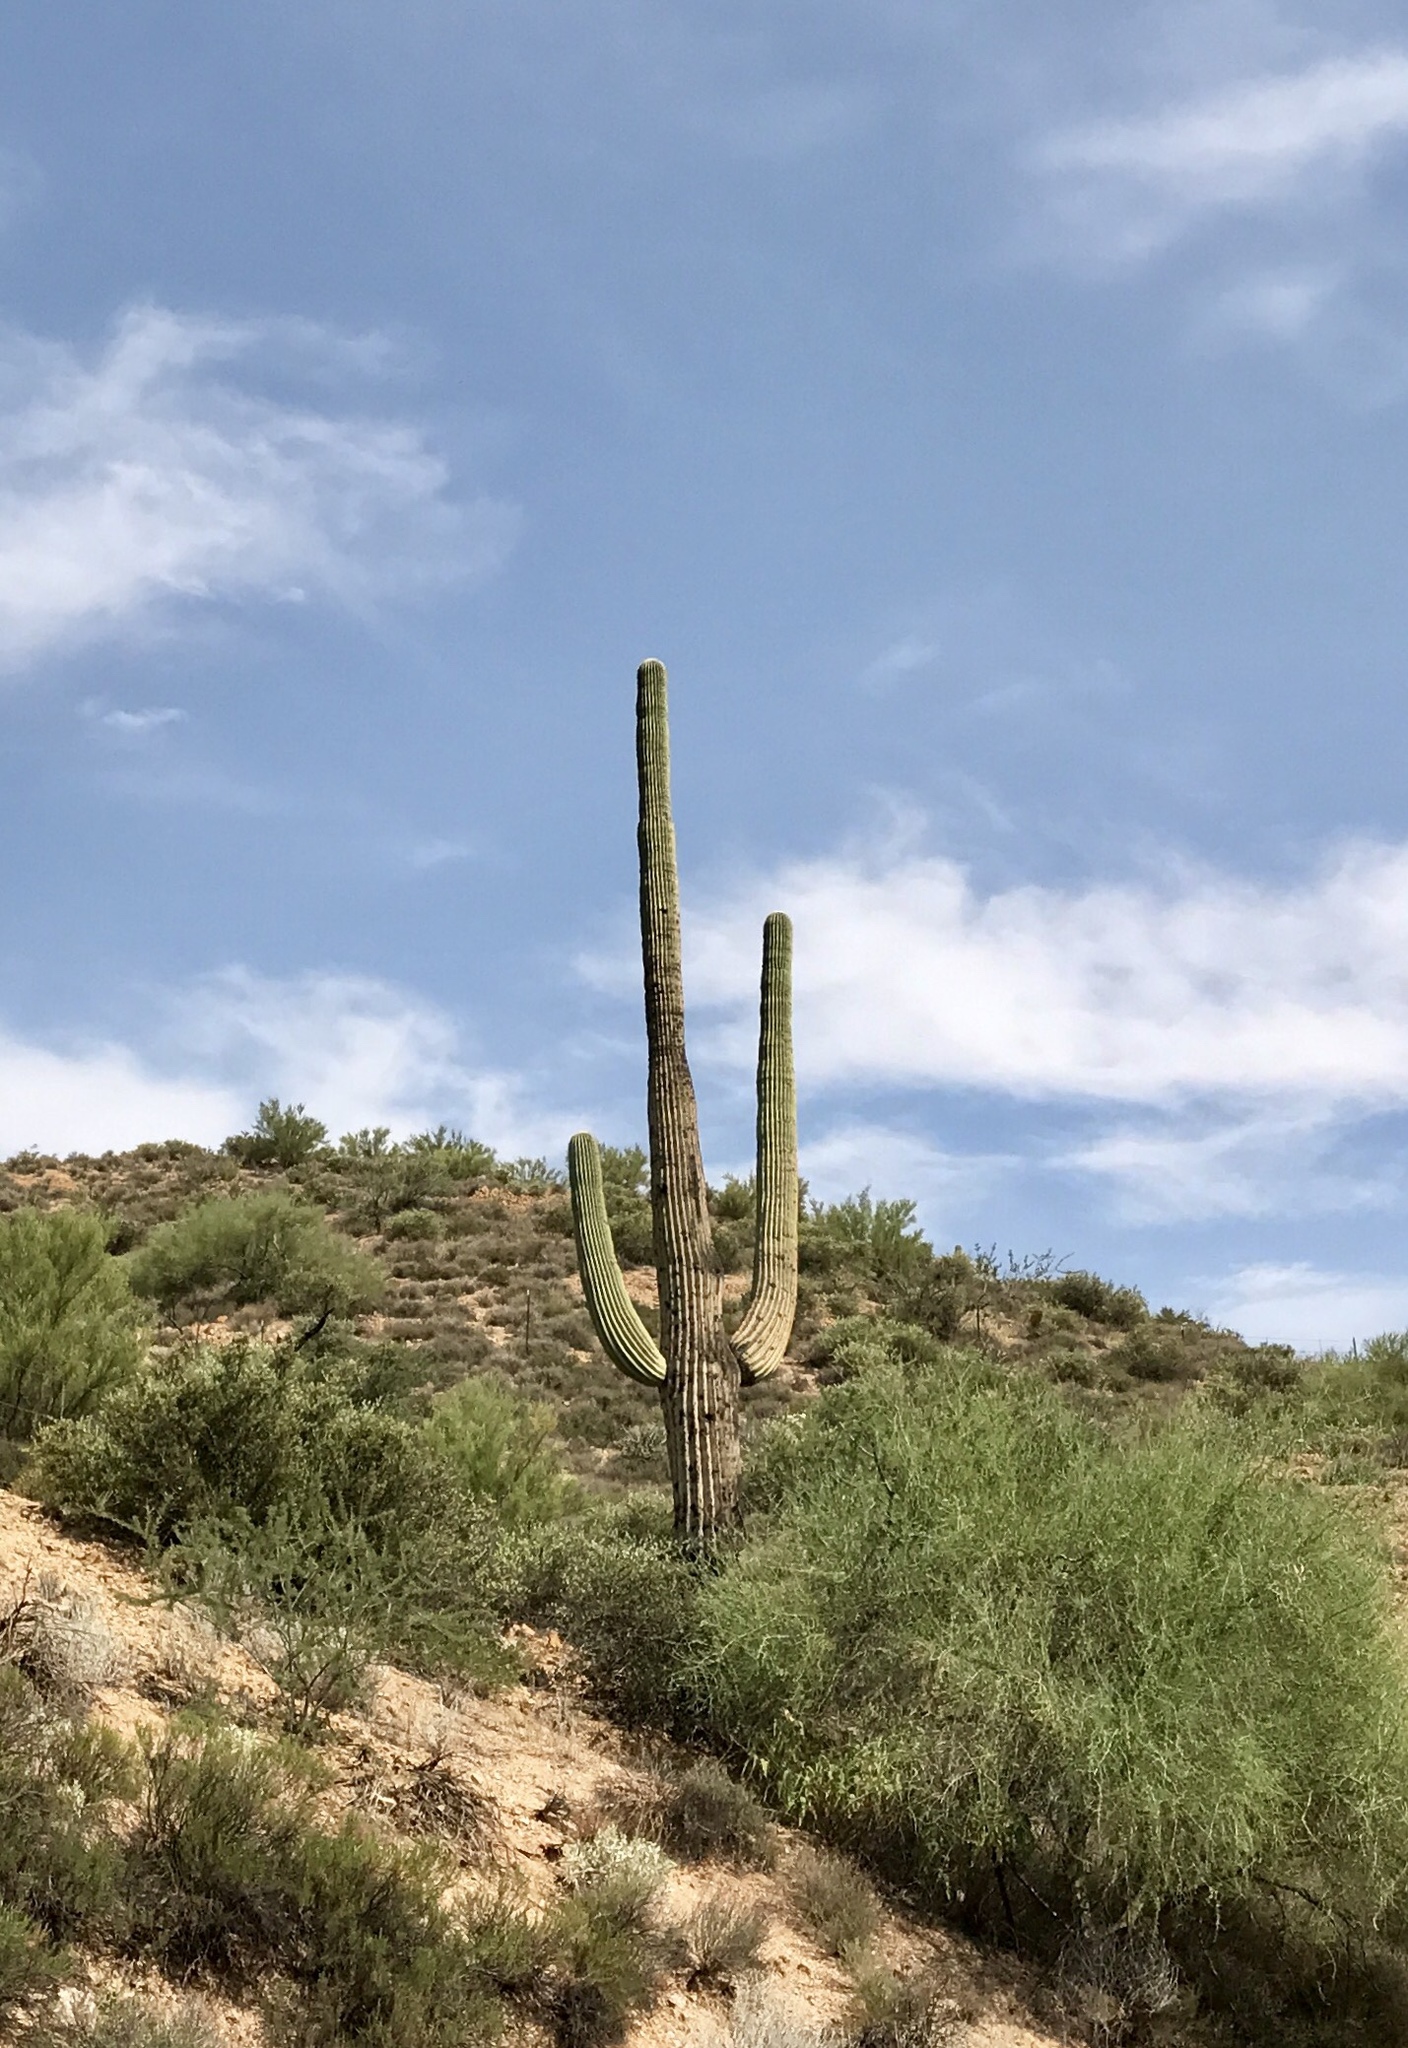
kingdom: Plantae
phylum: Tracheophyta
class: Magnoliopsida
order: Caryophyllales
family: Cactaceae
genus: Carnegiea
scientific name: Carnegiea gigantea
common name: Saguaro
